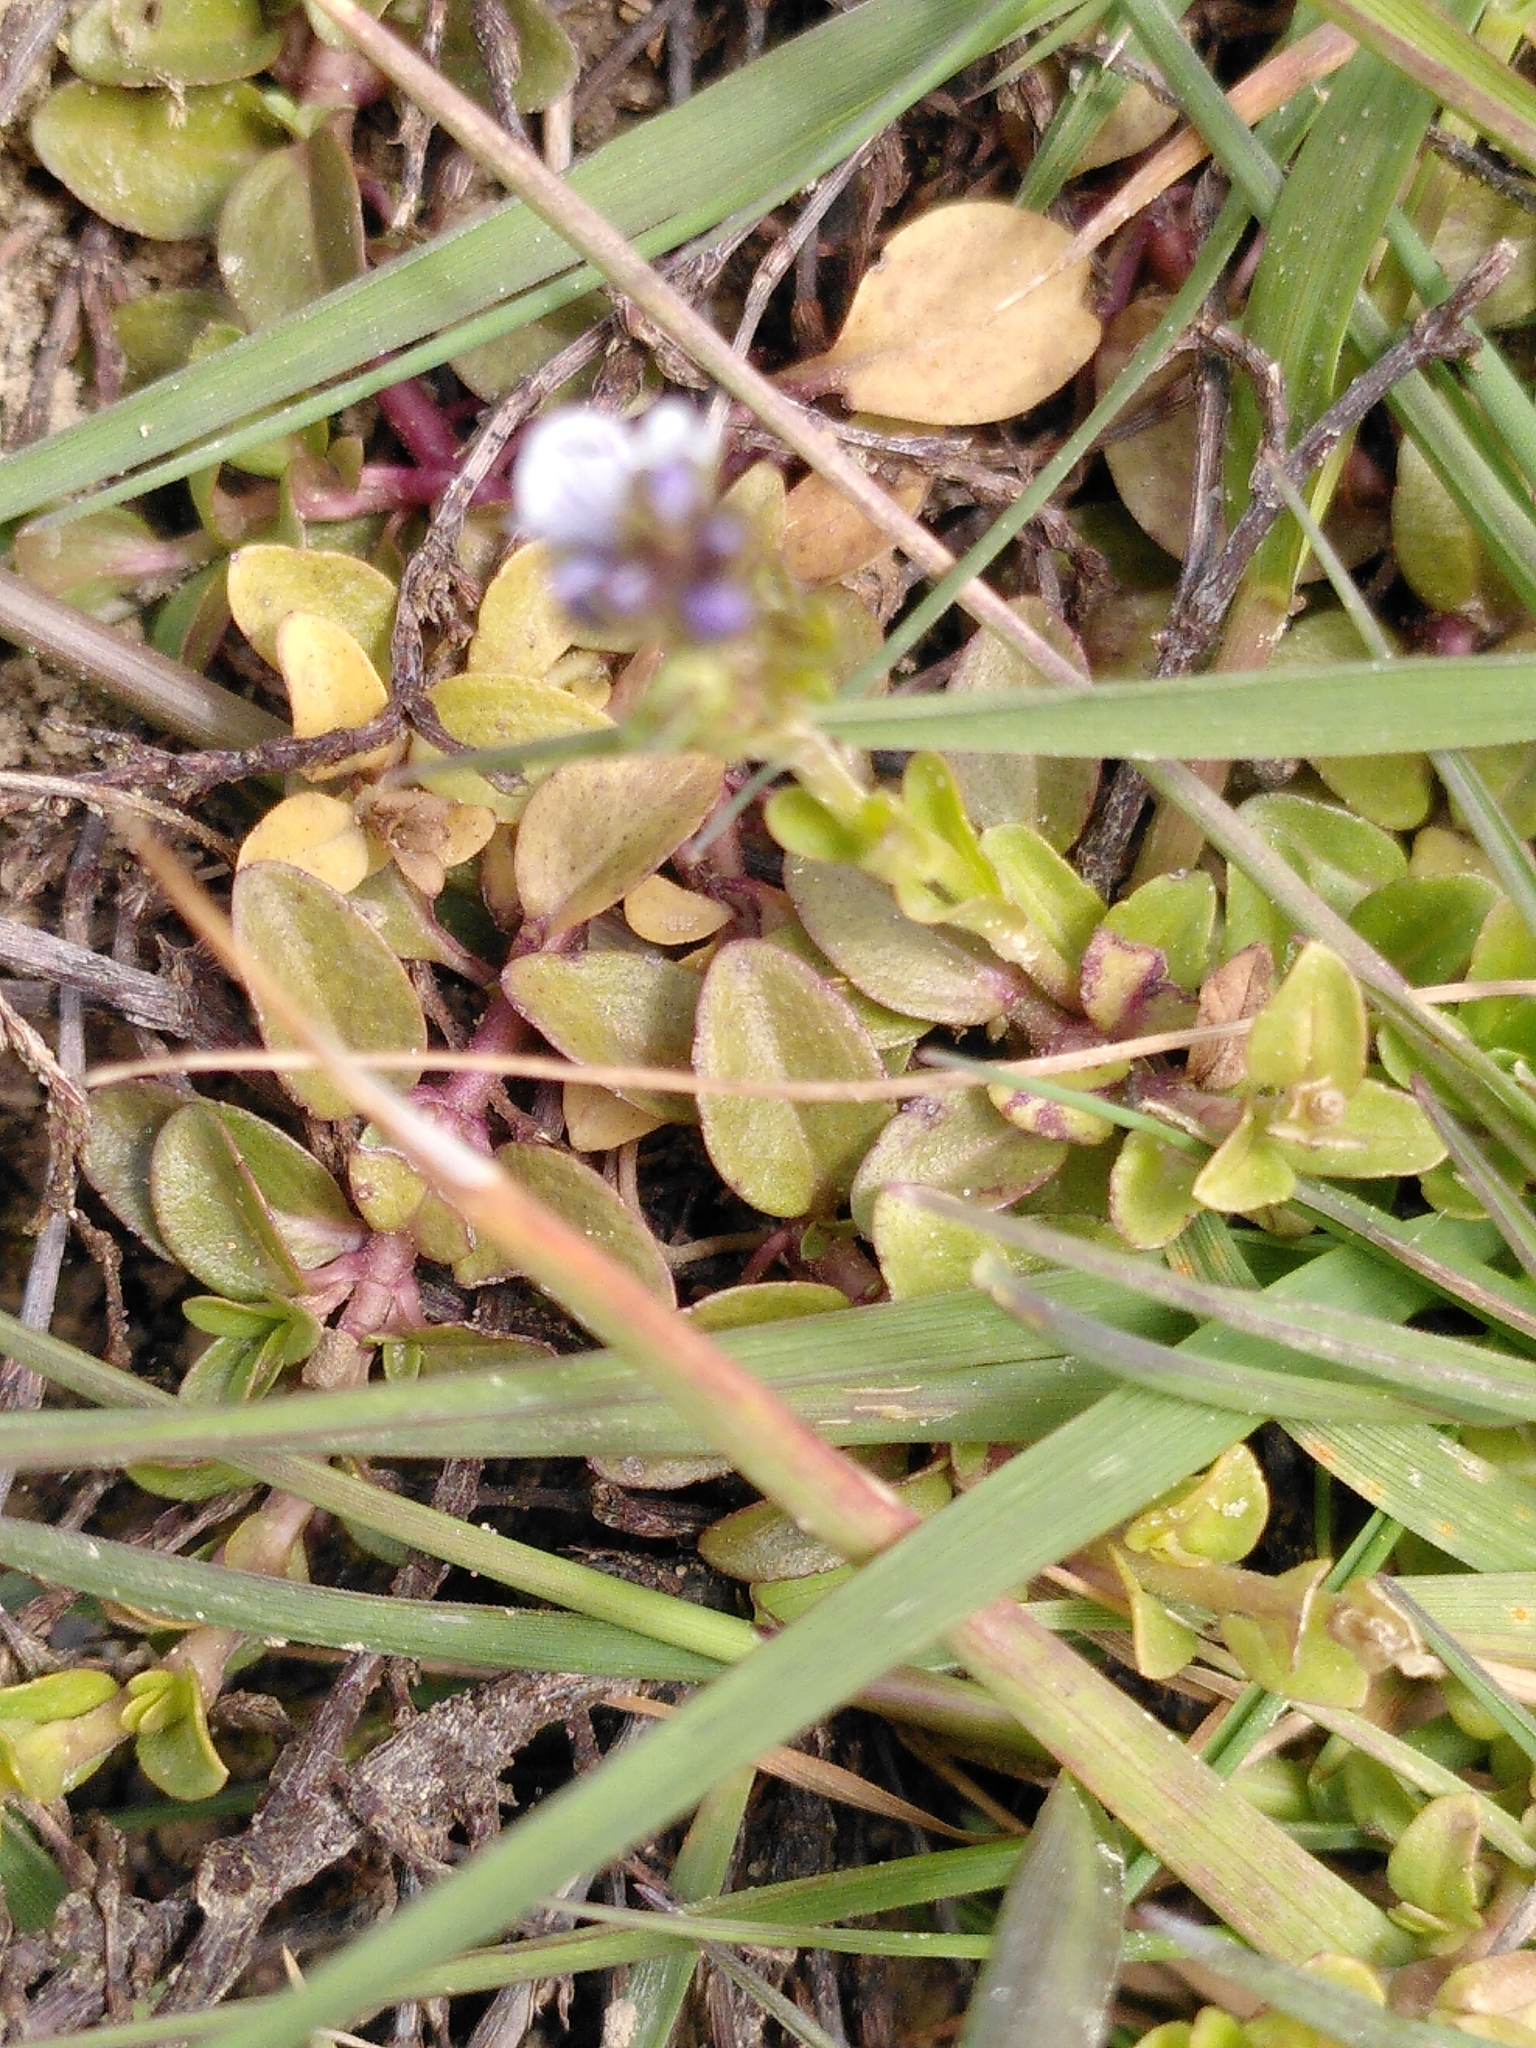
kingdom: Plantae
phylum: Tracheophyta
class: Magnoliopsida
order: Lamiales
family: Plantaginaceae
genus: Veronica
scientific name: Veronica serpyllifolia
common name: Thyme-leaved speedwell
